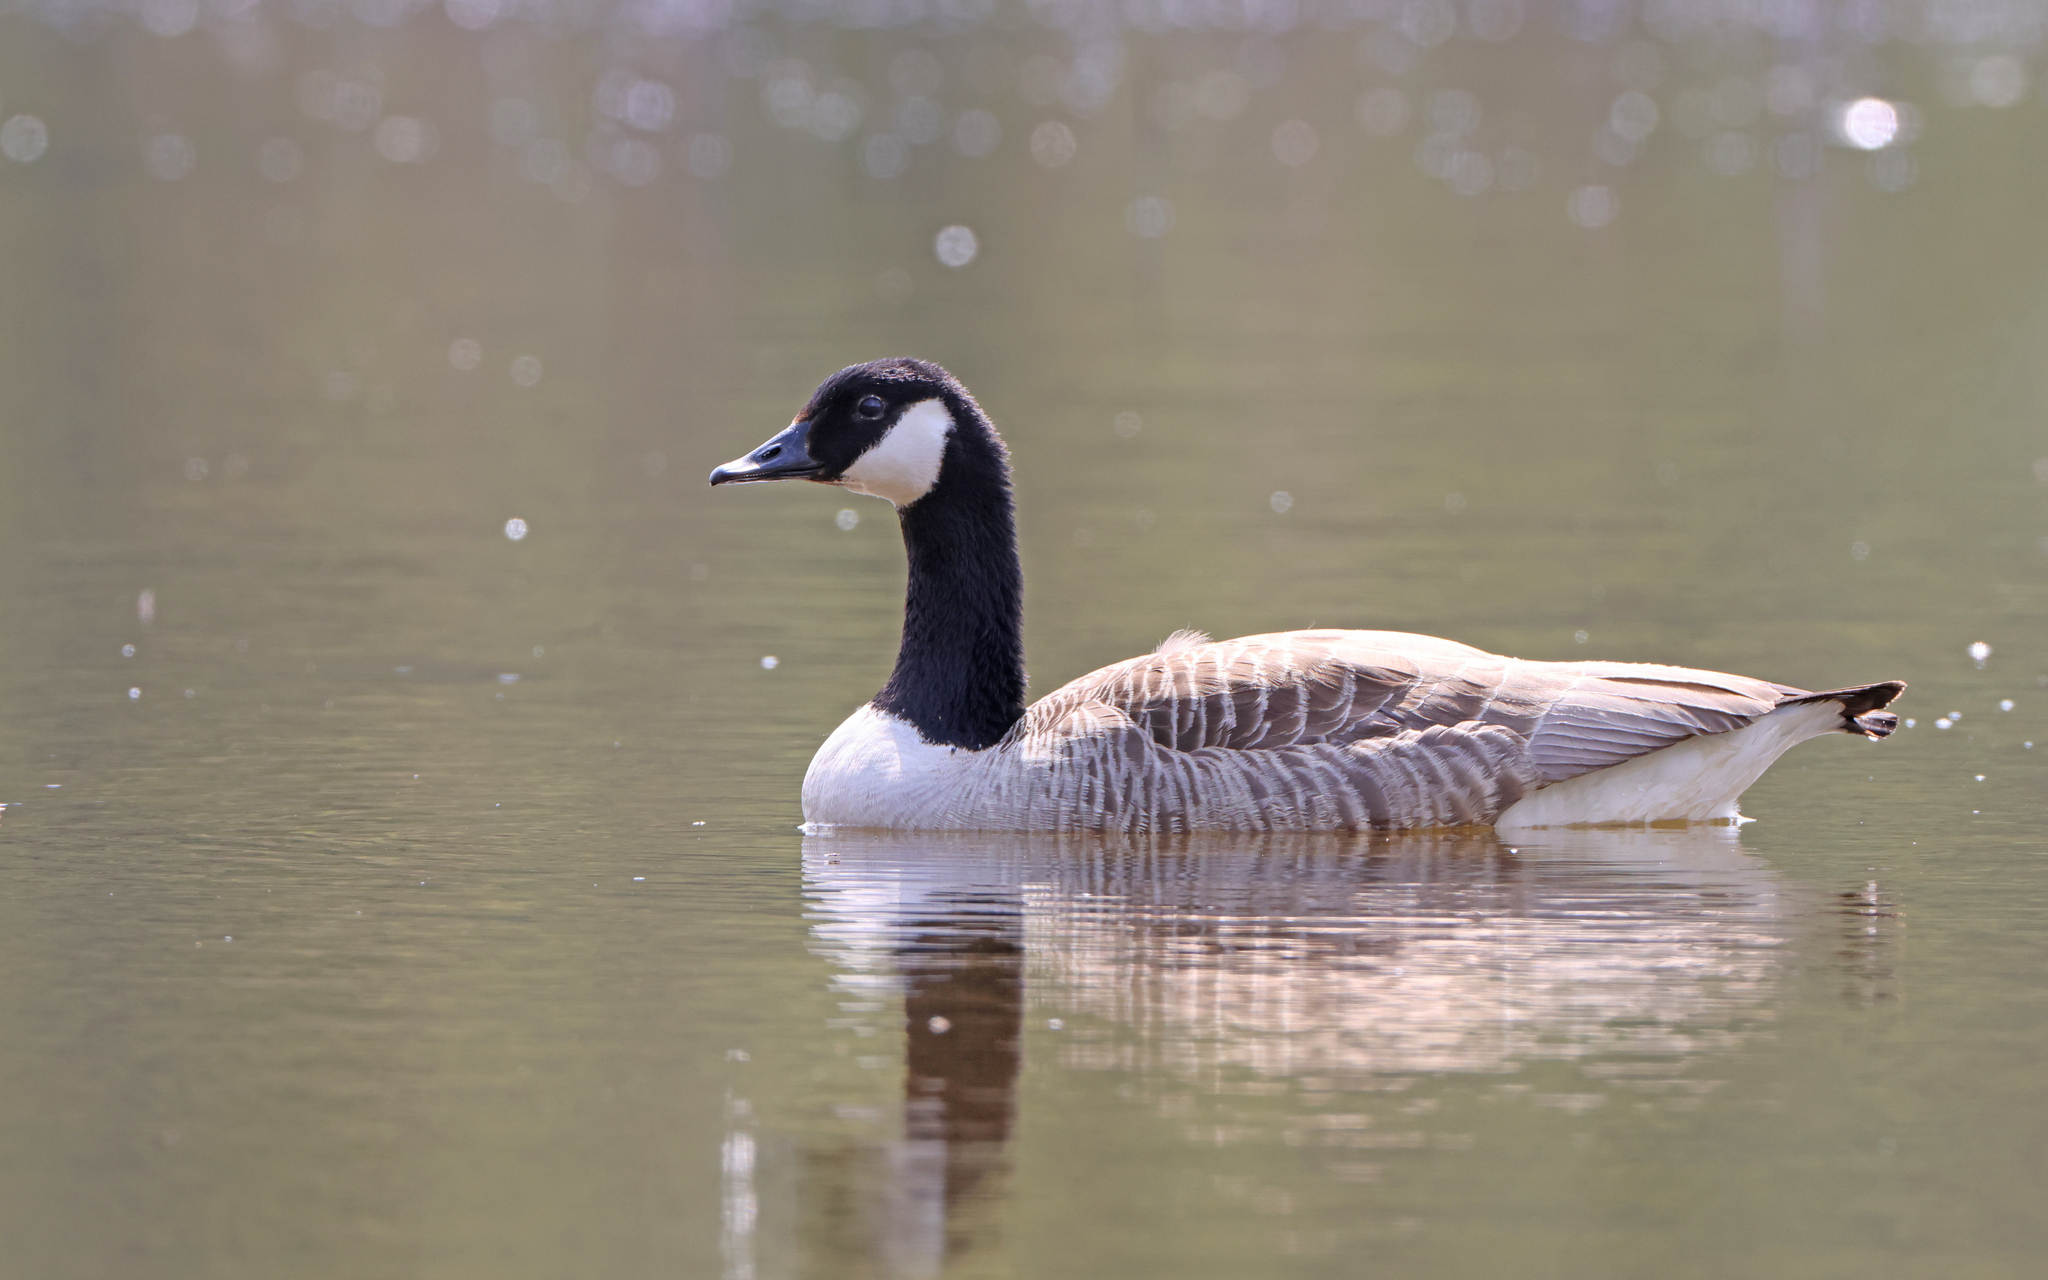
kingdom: Animalia
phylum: Chordata
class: Aves
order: Anseriformes
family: Anatidae
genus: Branta
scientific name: Branta canadensis
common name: Canada goose
